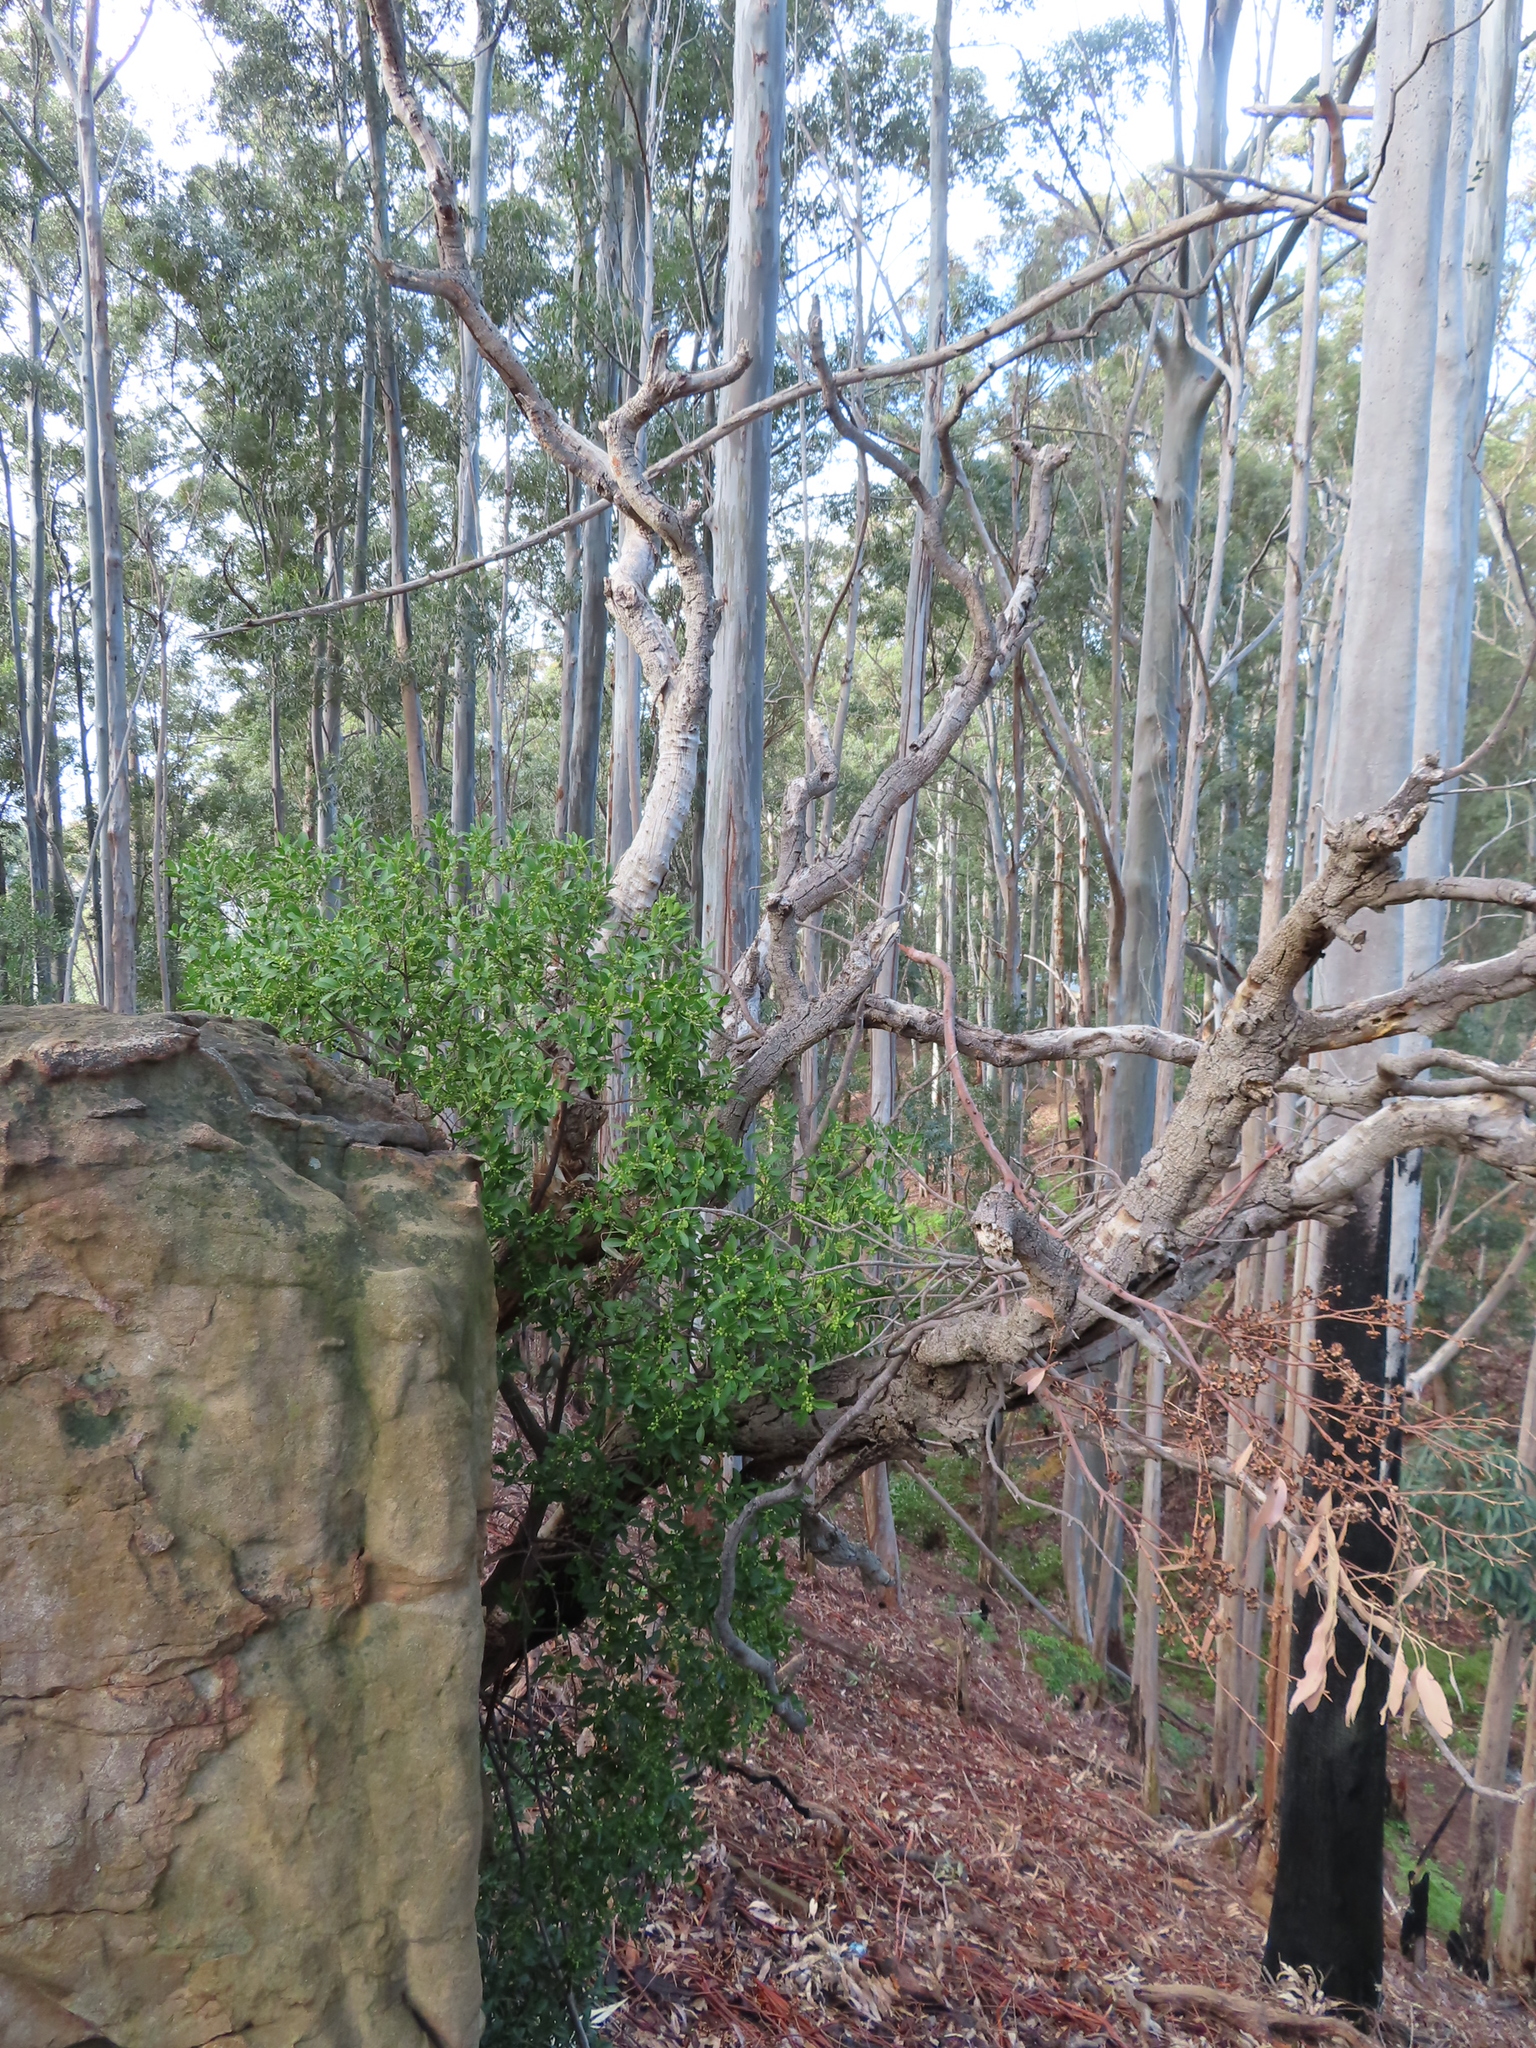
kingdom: Plantae
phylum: Tracheophyta
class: Magnoliopsida
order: Celastrales
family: Celastraceae
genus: Gymnosporia
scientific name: Gymnosporia laurina
